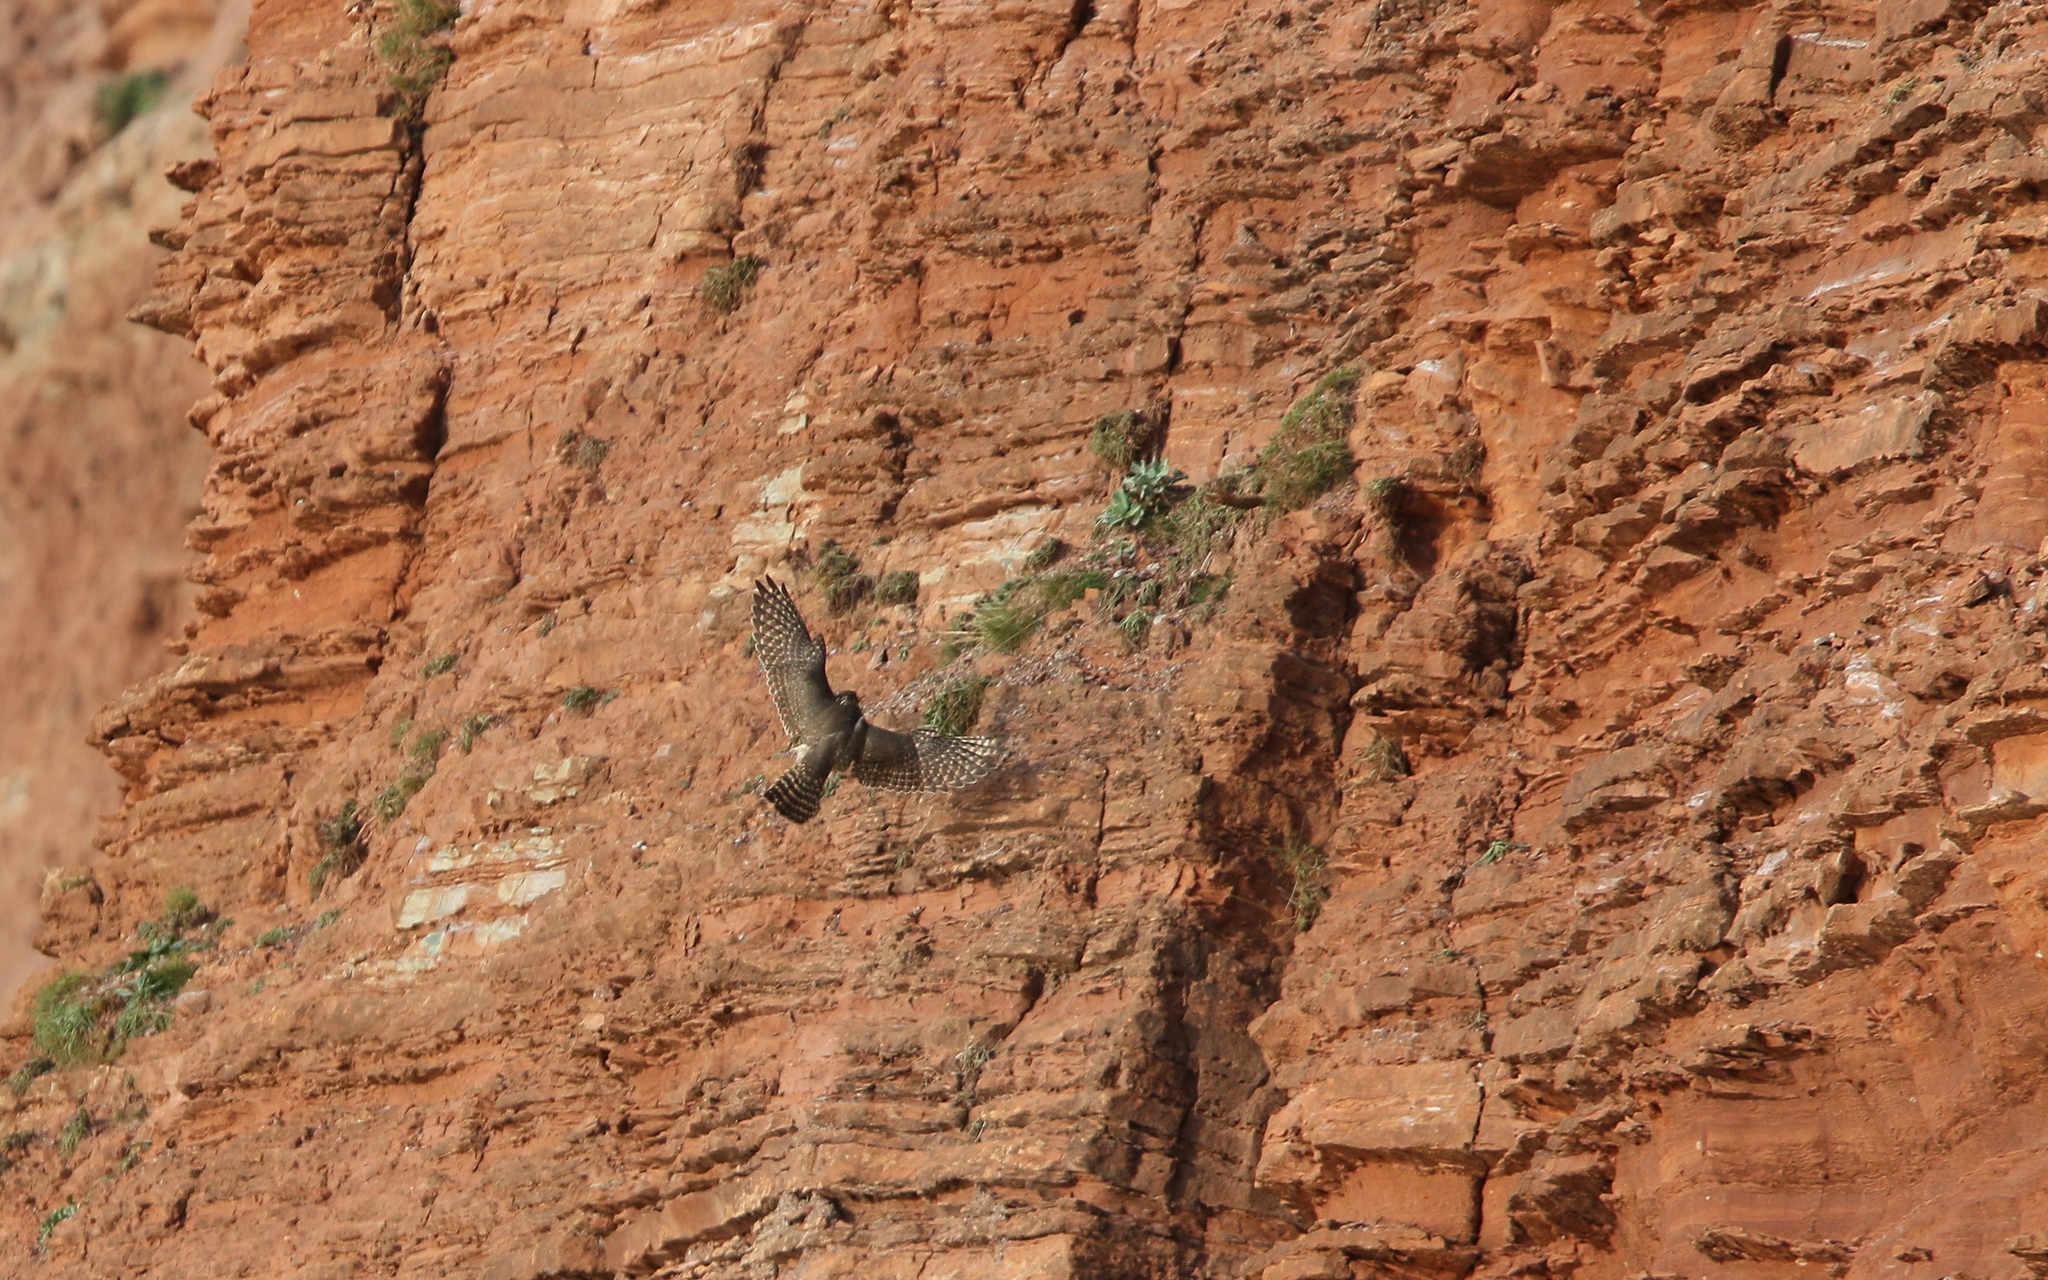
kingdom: Animalia
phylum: Chordata
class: Aves
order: Falconiformes
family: Falconidae
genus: Falco
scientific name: Falco columbarius
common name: Merlin
